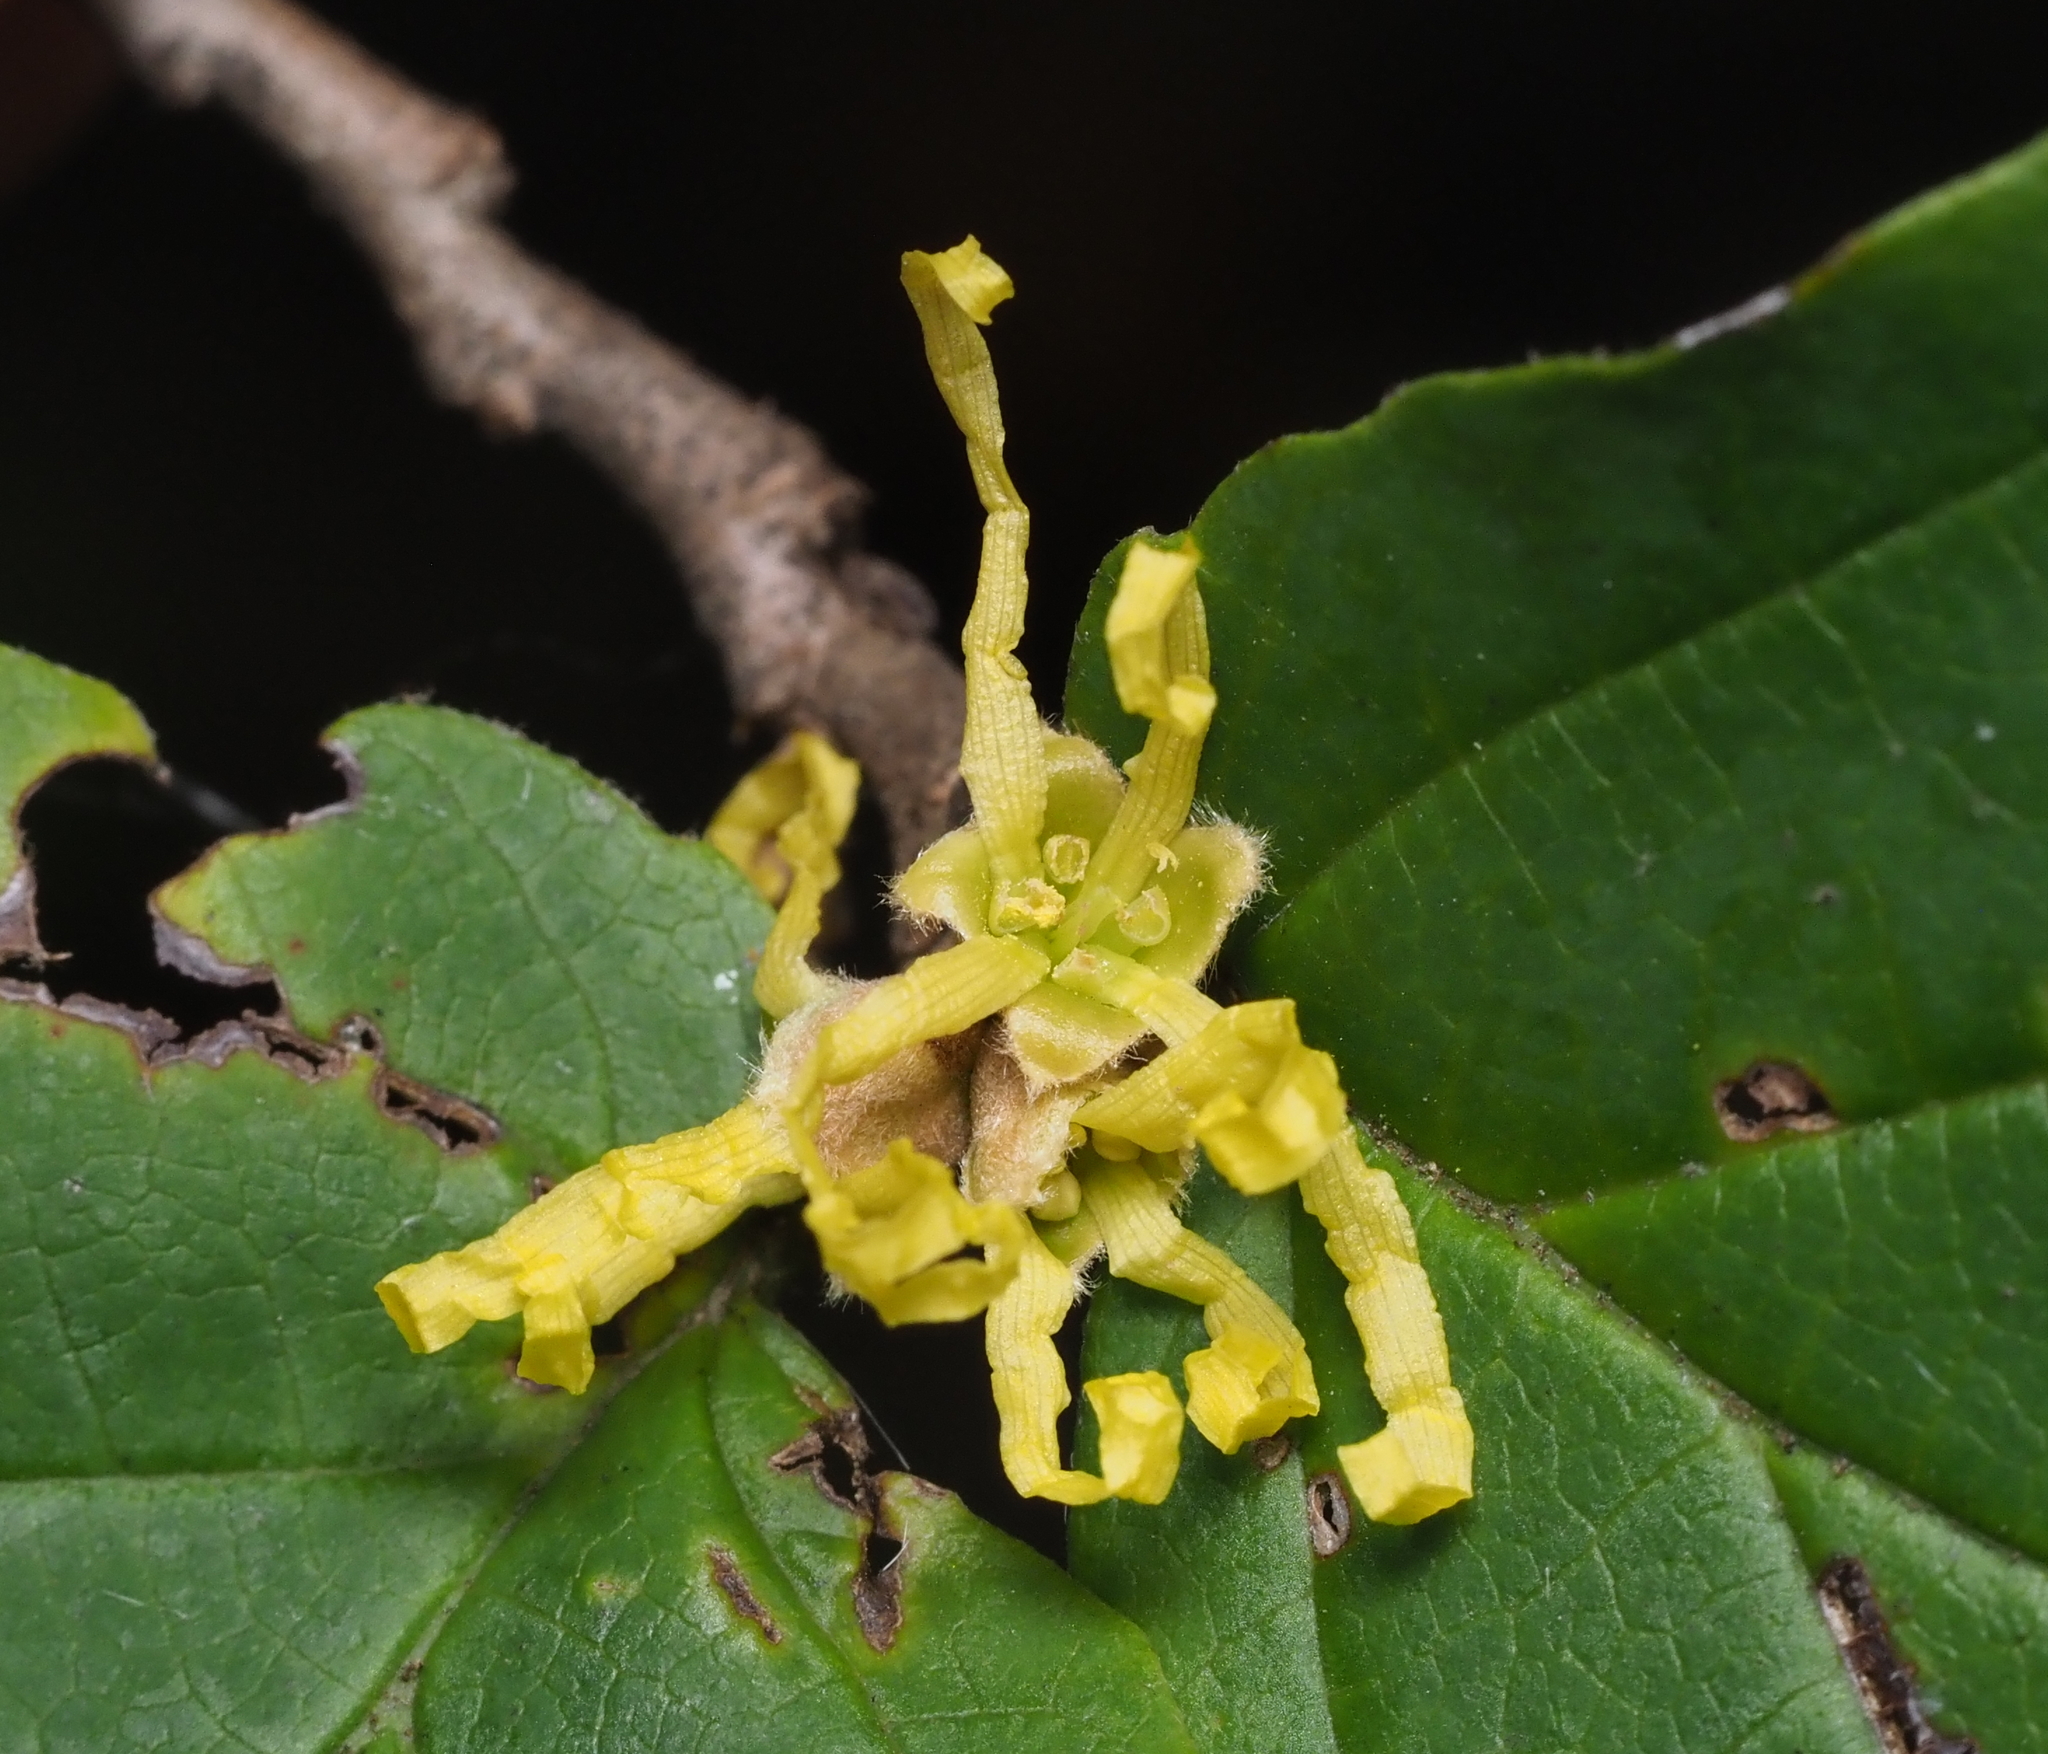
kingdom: Plantae
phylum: Tracheophyta
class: Magnoliopsida
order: Saxifragales
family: Hamamelidaceae
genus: Hamamelis
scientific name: Hamamelis virginiana
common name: Witch-hazel
